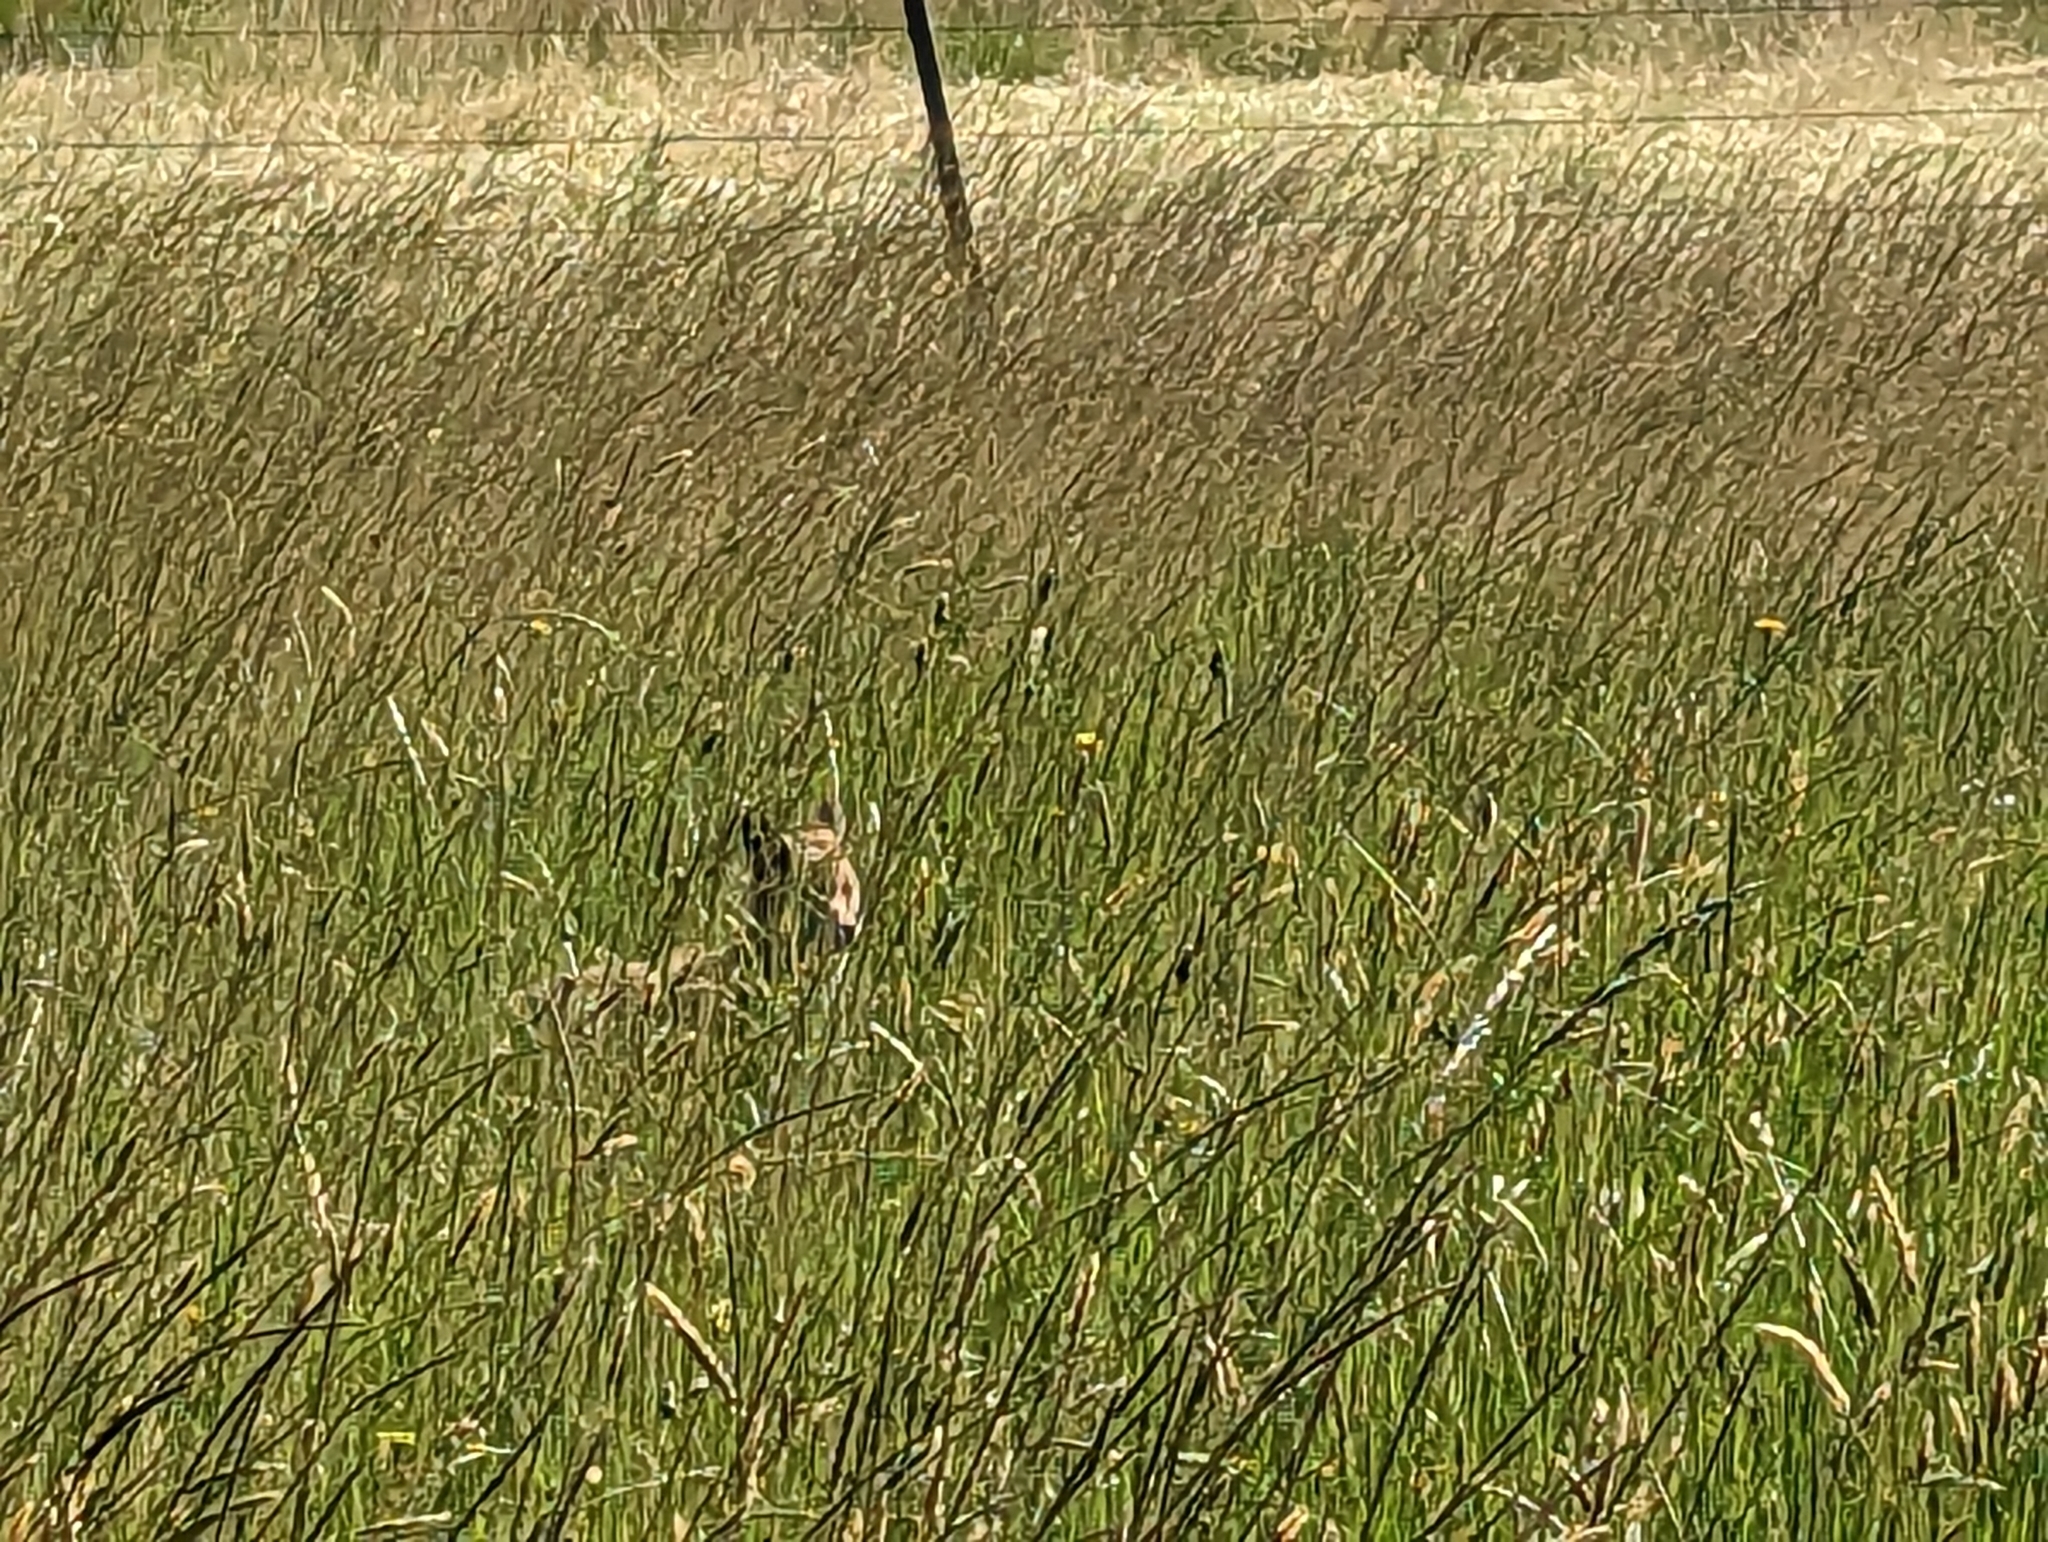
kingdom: Animalia
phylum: Chordata
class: Mammalia
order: Carnivora
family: Canidae
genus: Vulpes
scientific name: Vulpes vulpes
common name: Red fox
